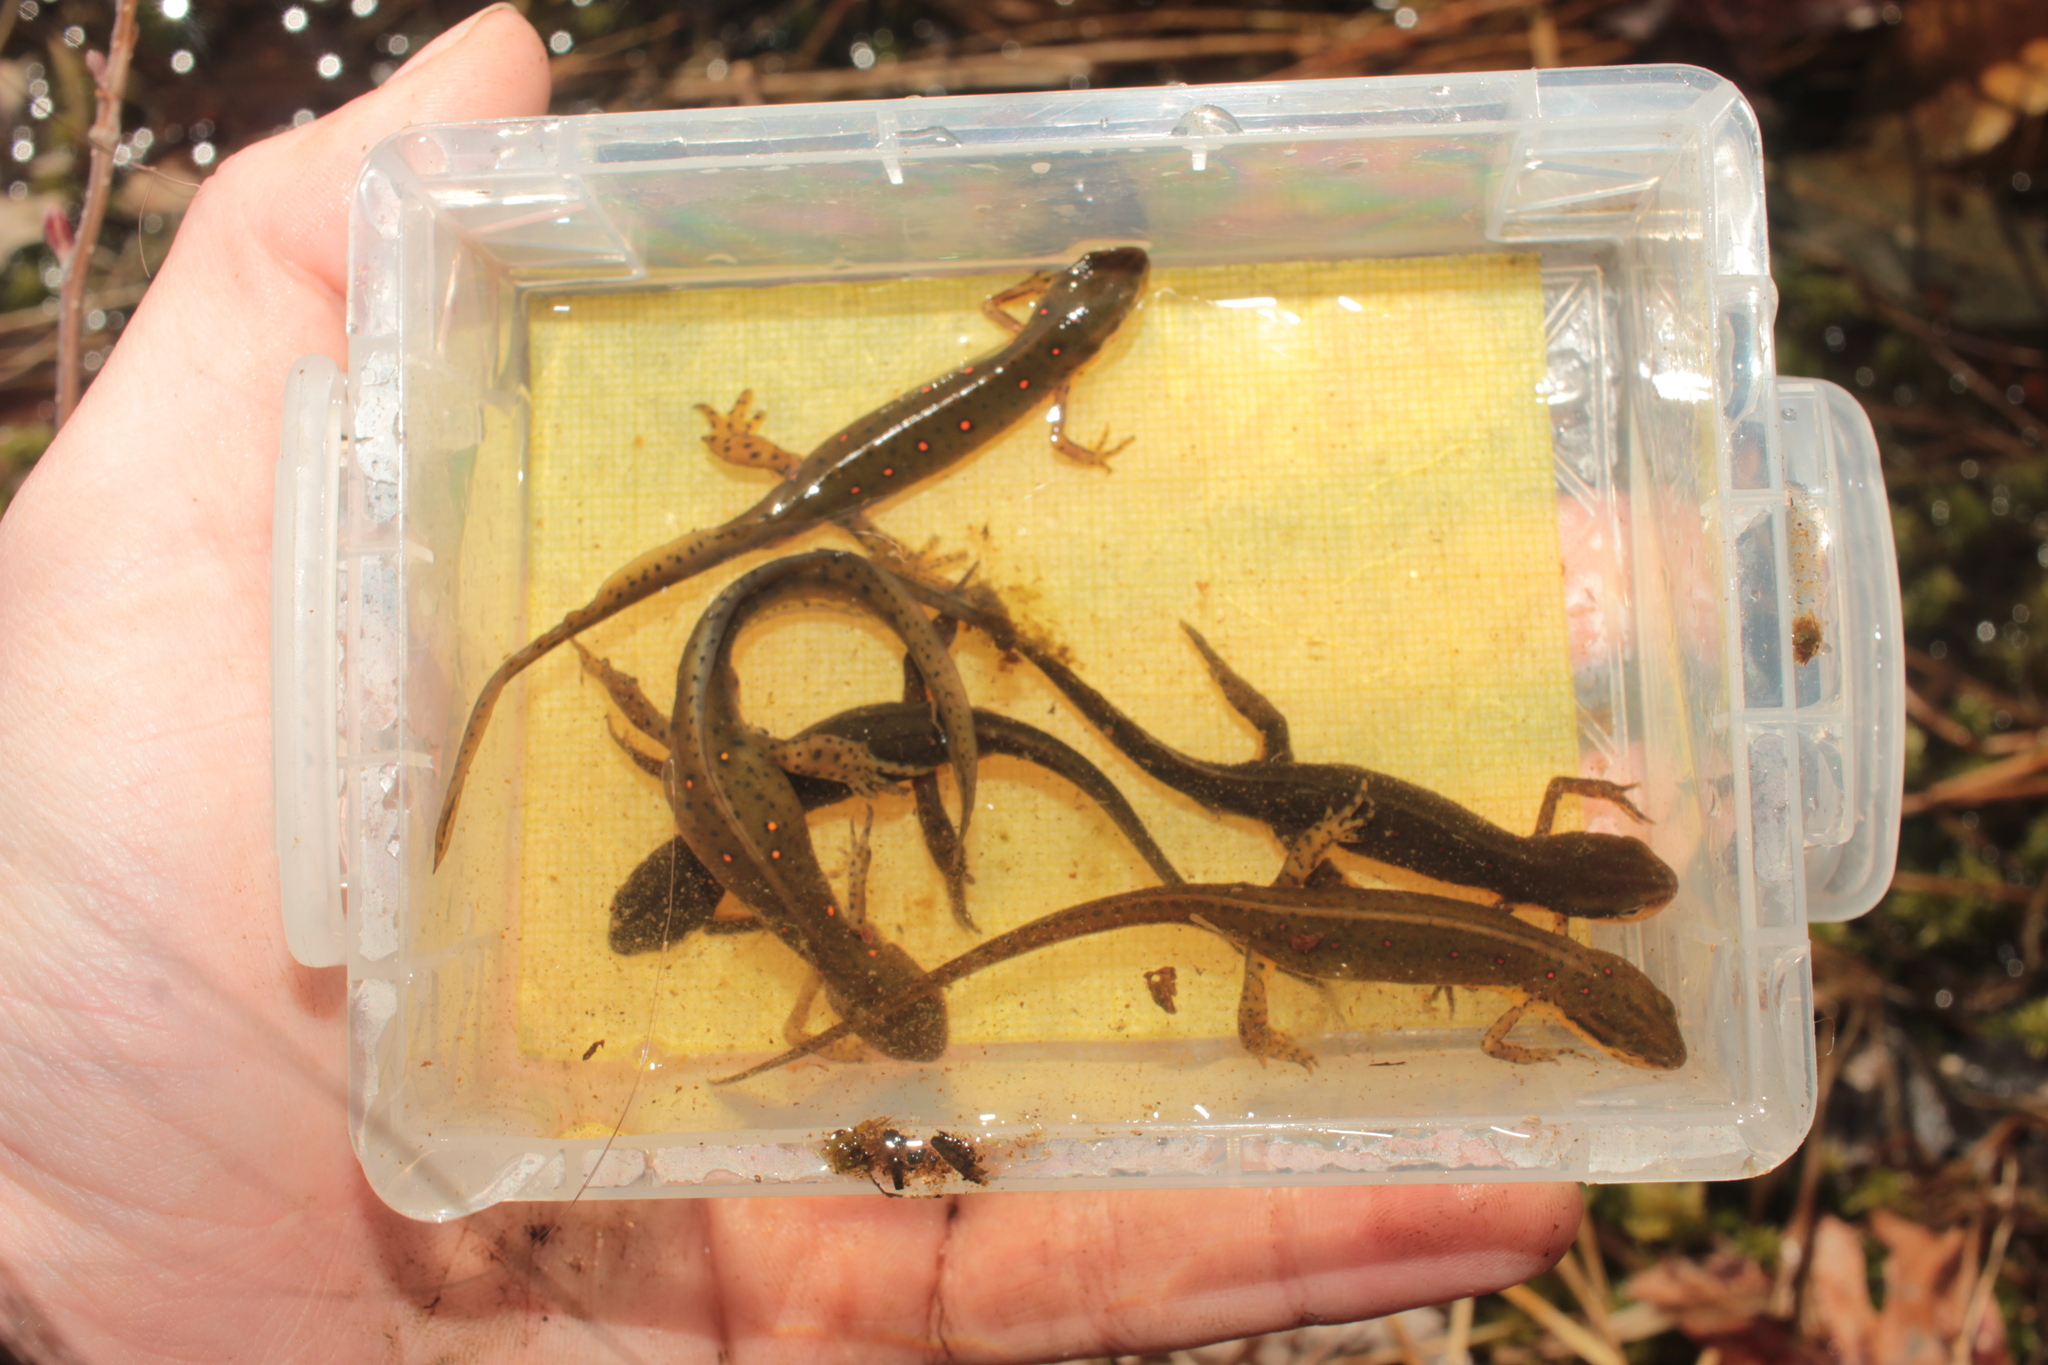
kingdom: Animalia
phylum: Chordata
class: Amphibia
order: Caudata
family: Salamandridae
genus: Notophthalmus
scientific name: Notophthalmus viridescens
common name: Eastern newt
